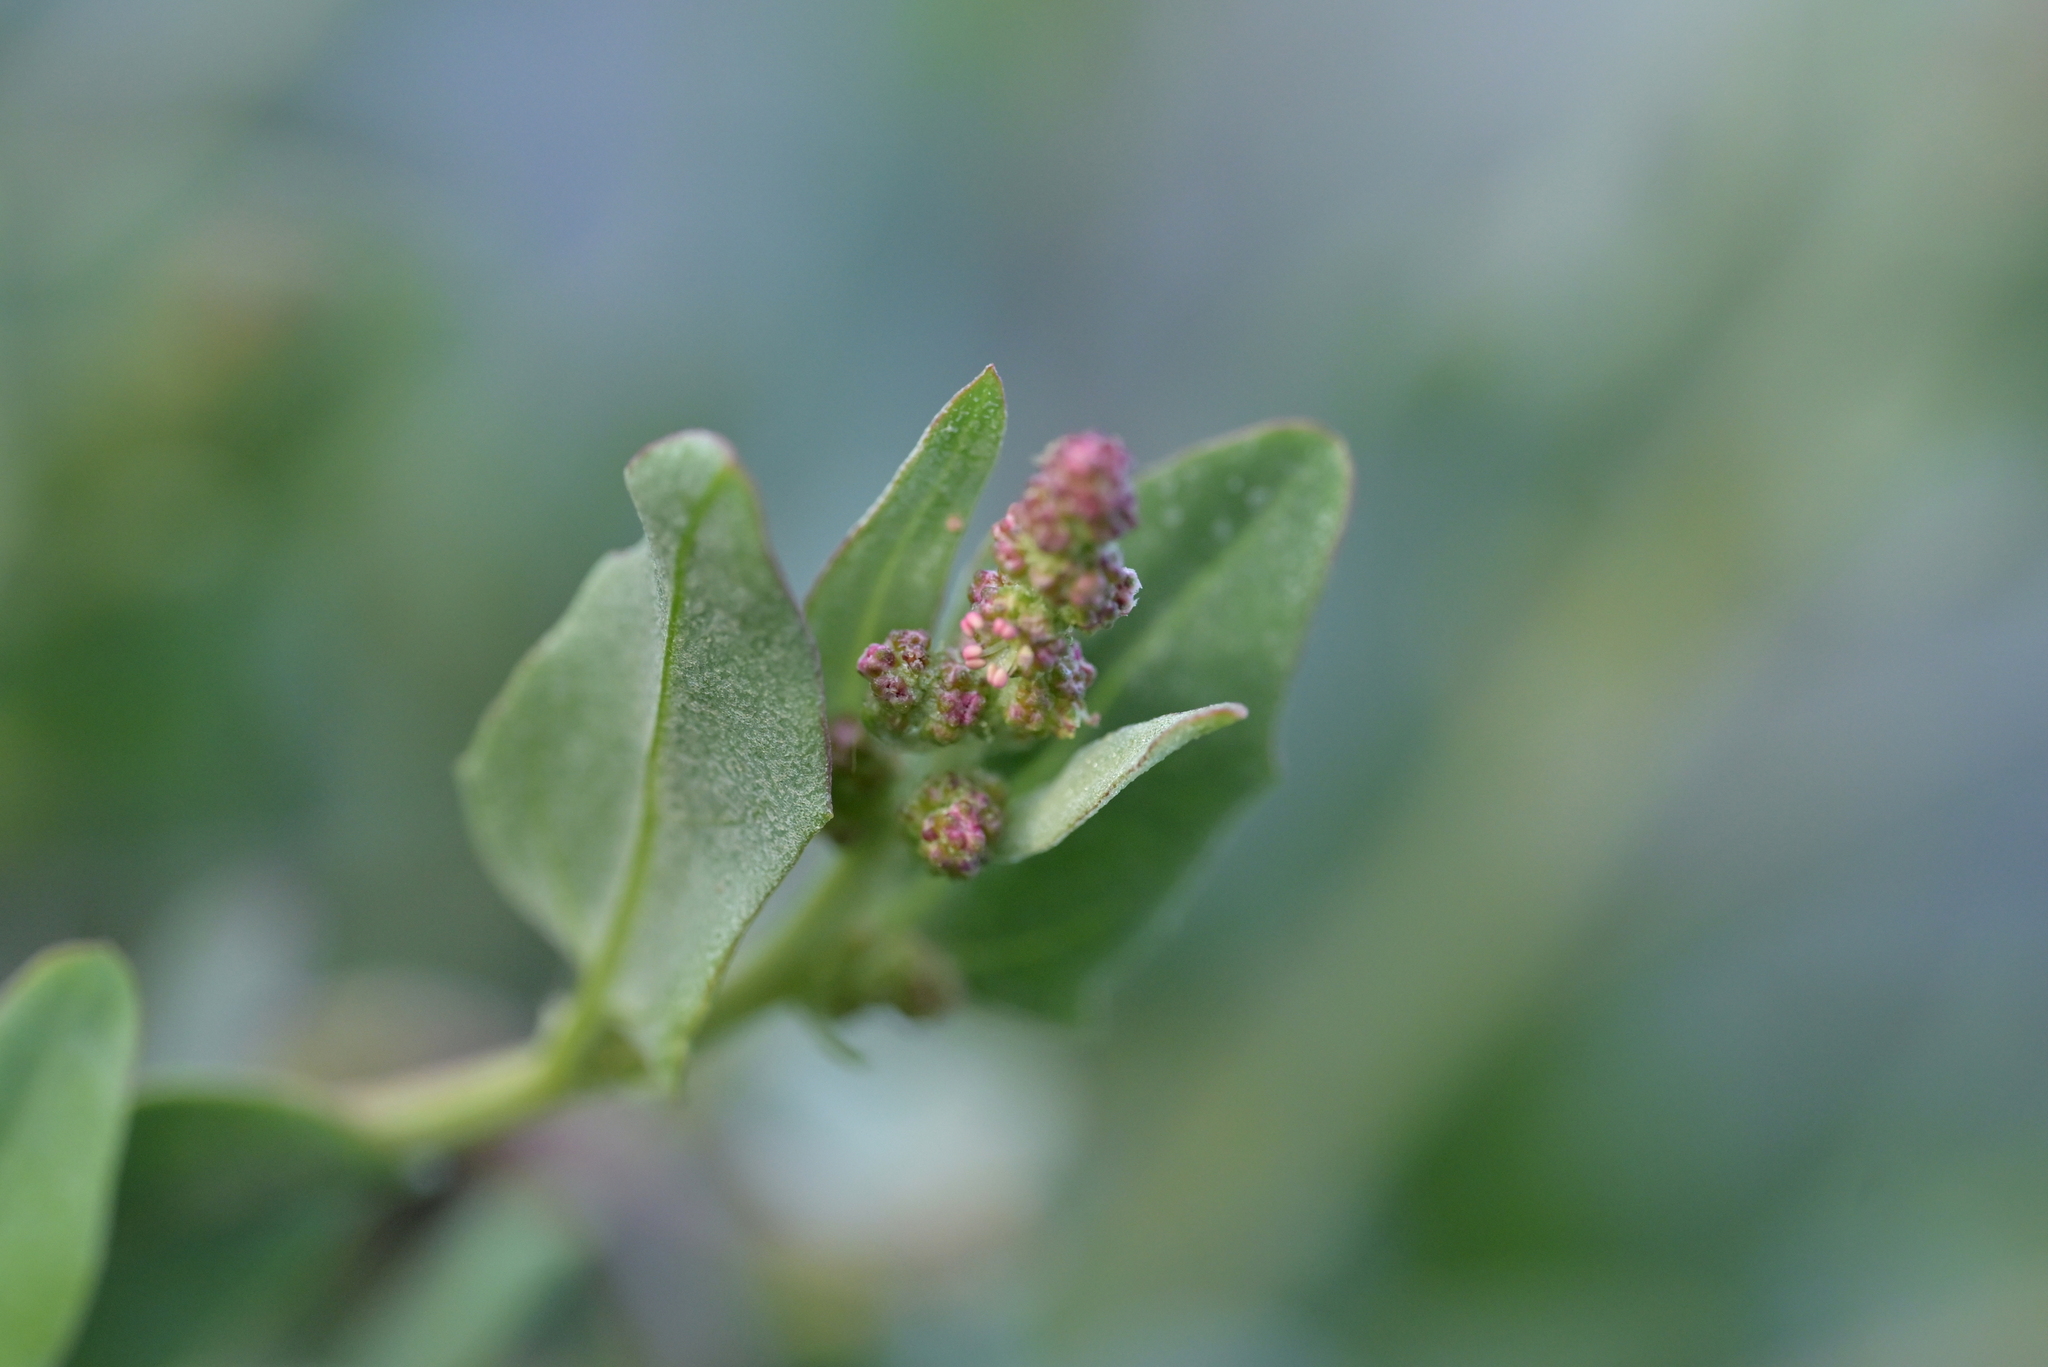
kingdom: Plantae
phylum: Tracheophyta
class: Magnoliopsida
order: Caryophyllales
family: Amaranthaceae
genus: Atriplex
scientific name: Atriplex prostrata
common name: Spear-leaved orache
